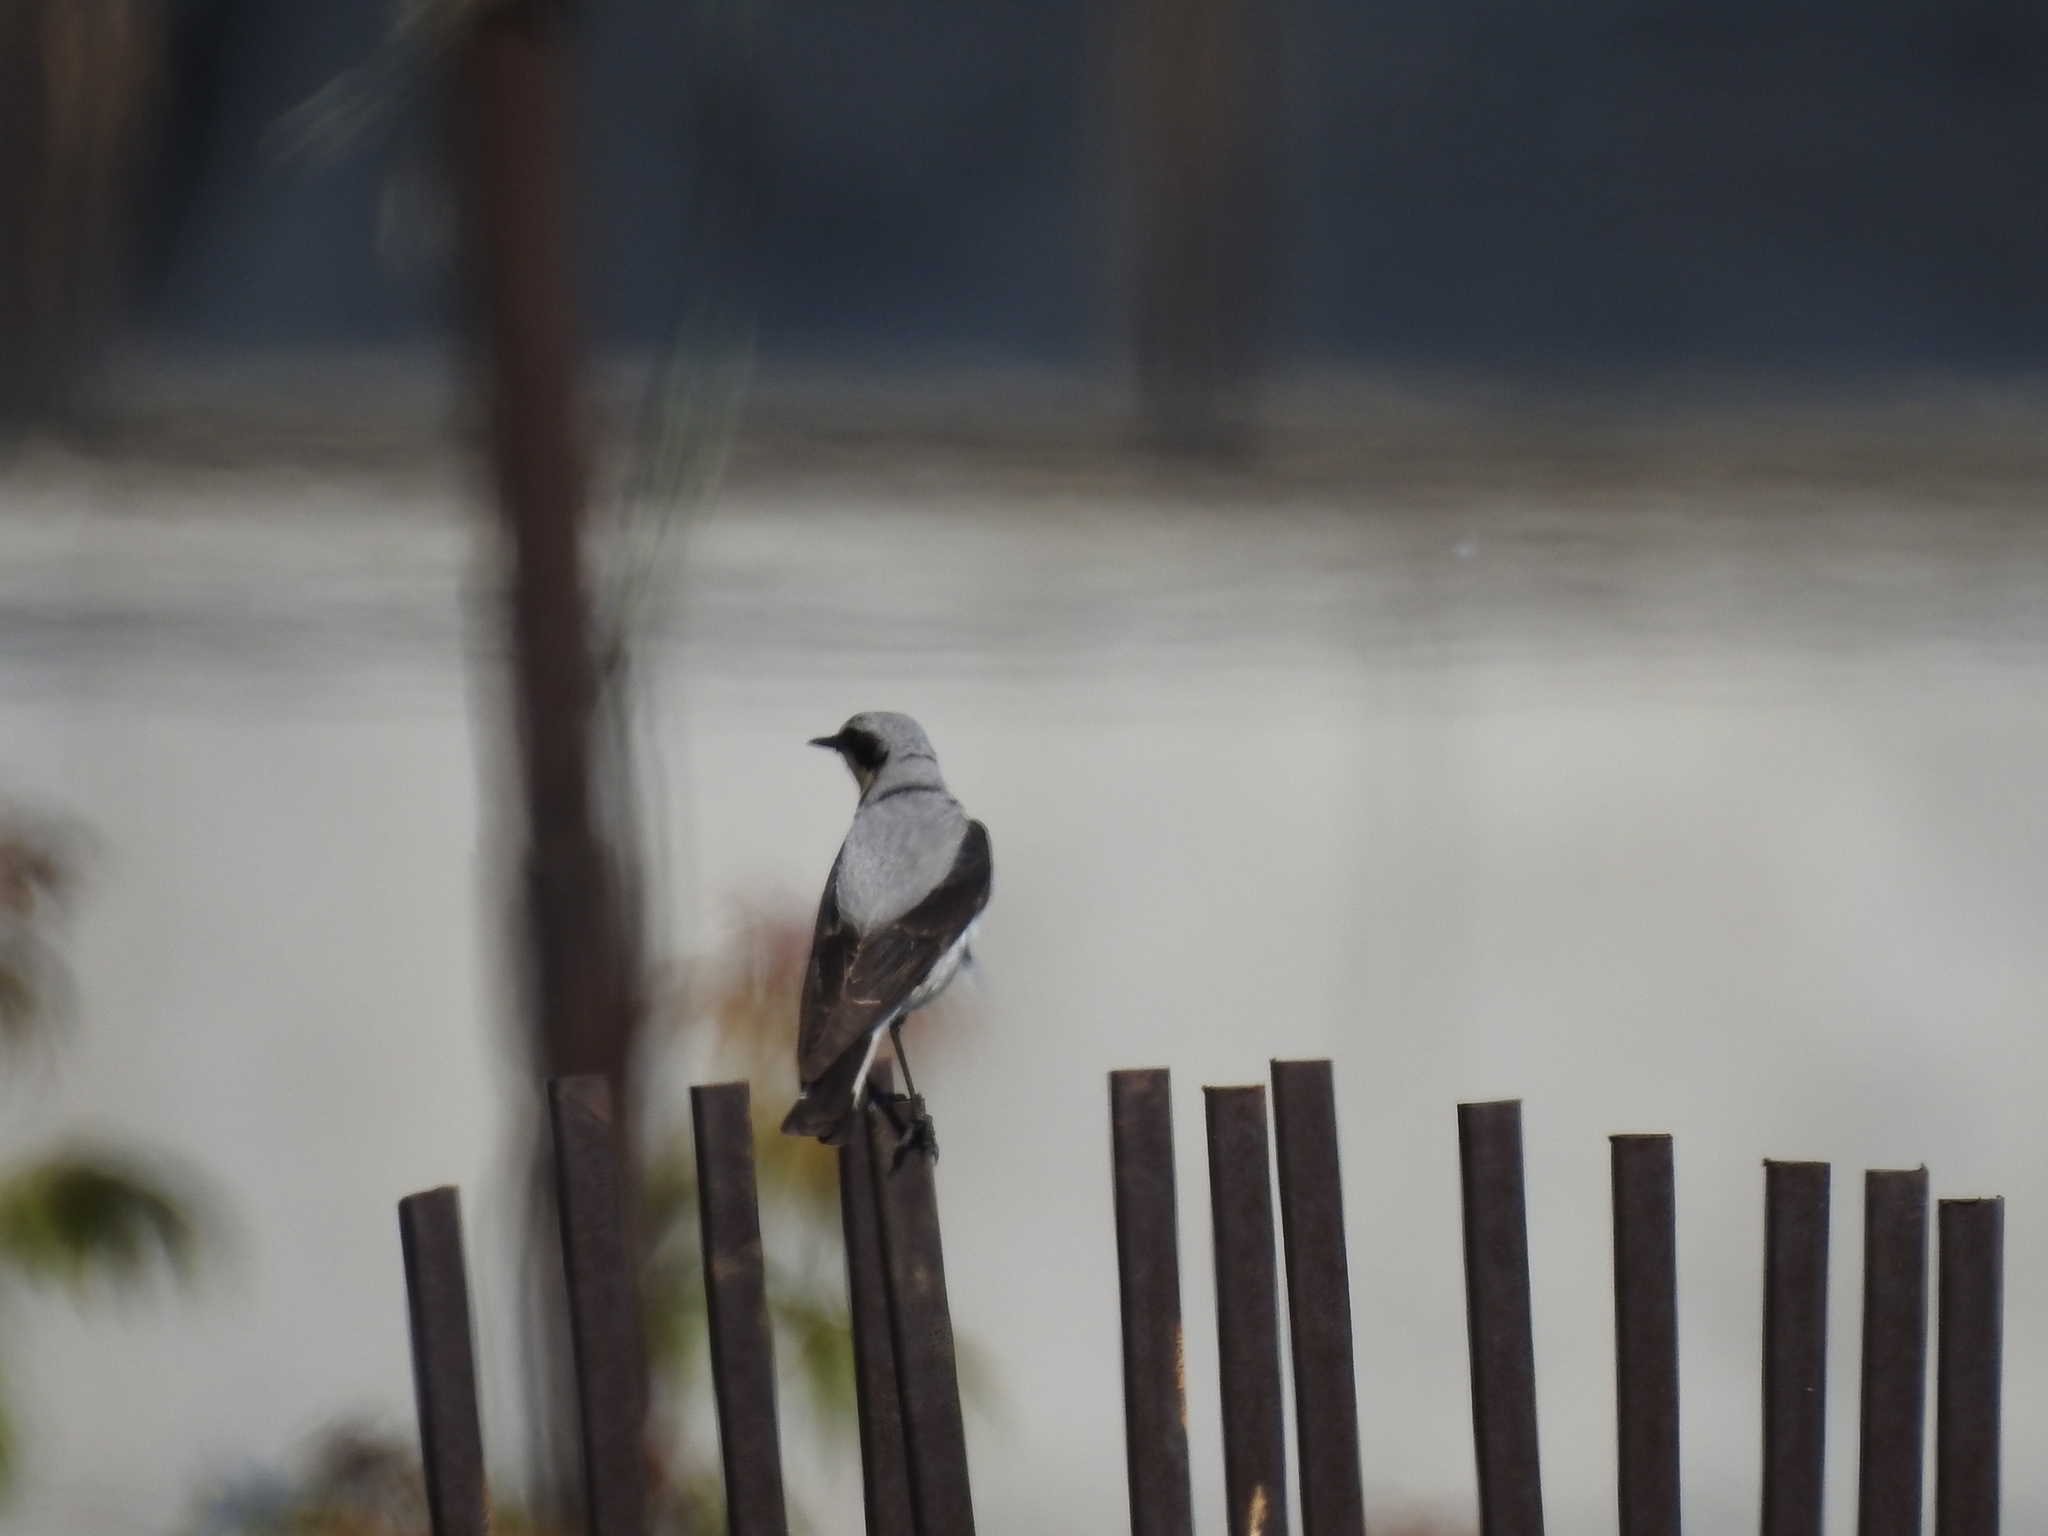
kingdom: Animalia
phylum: Chordata
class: Aves
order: Passeriformes
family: Muscicapidae
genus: Oenanthe
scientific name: Oenanthe oenanthe
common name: Northern wheatear
